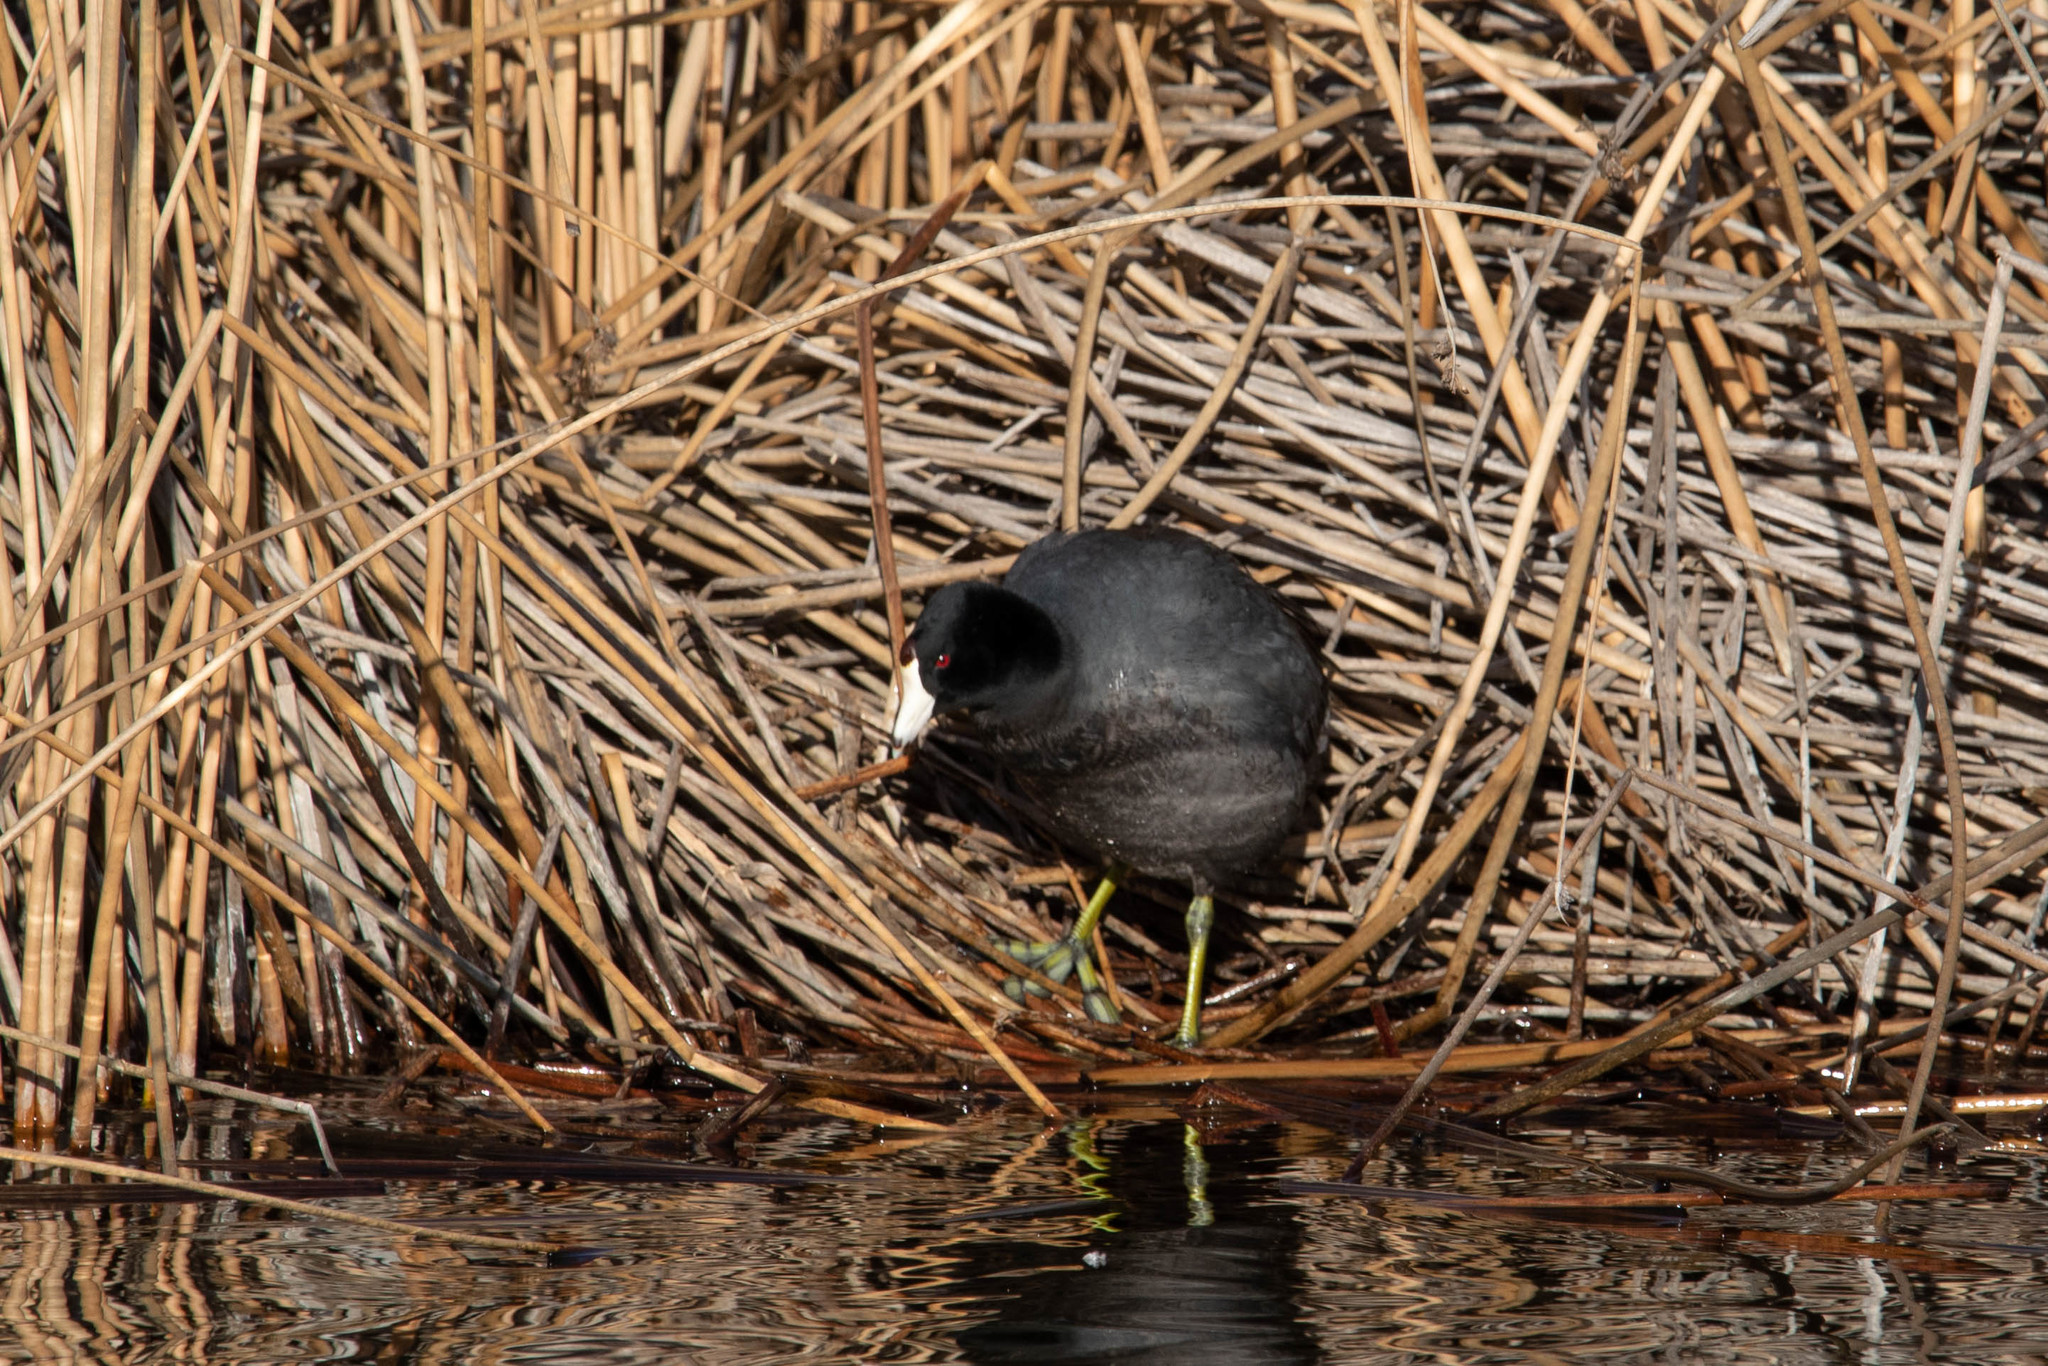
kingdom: Animalia
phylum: Chordata
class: Aves
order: Gruiformes
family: Rallidae
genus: Fulica
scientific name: Fulica americana
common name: American coot
